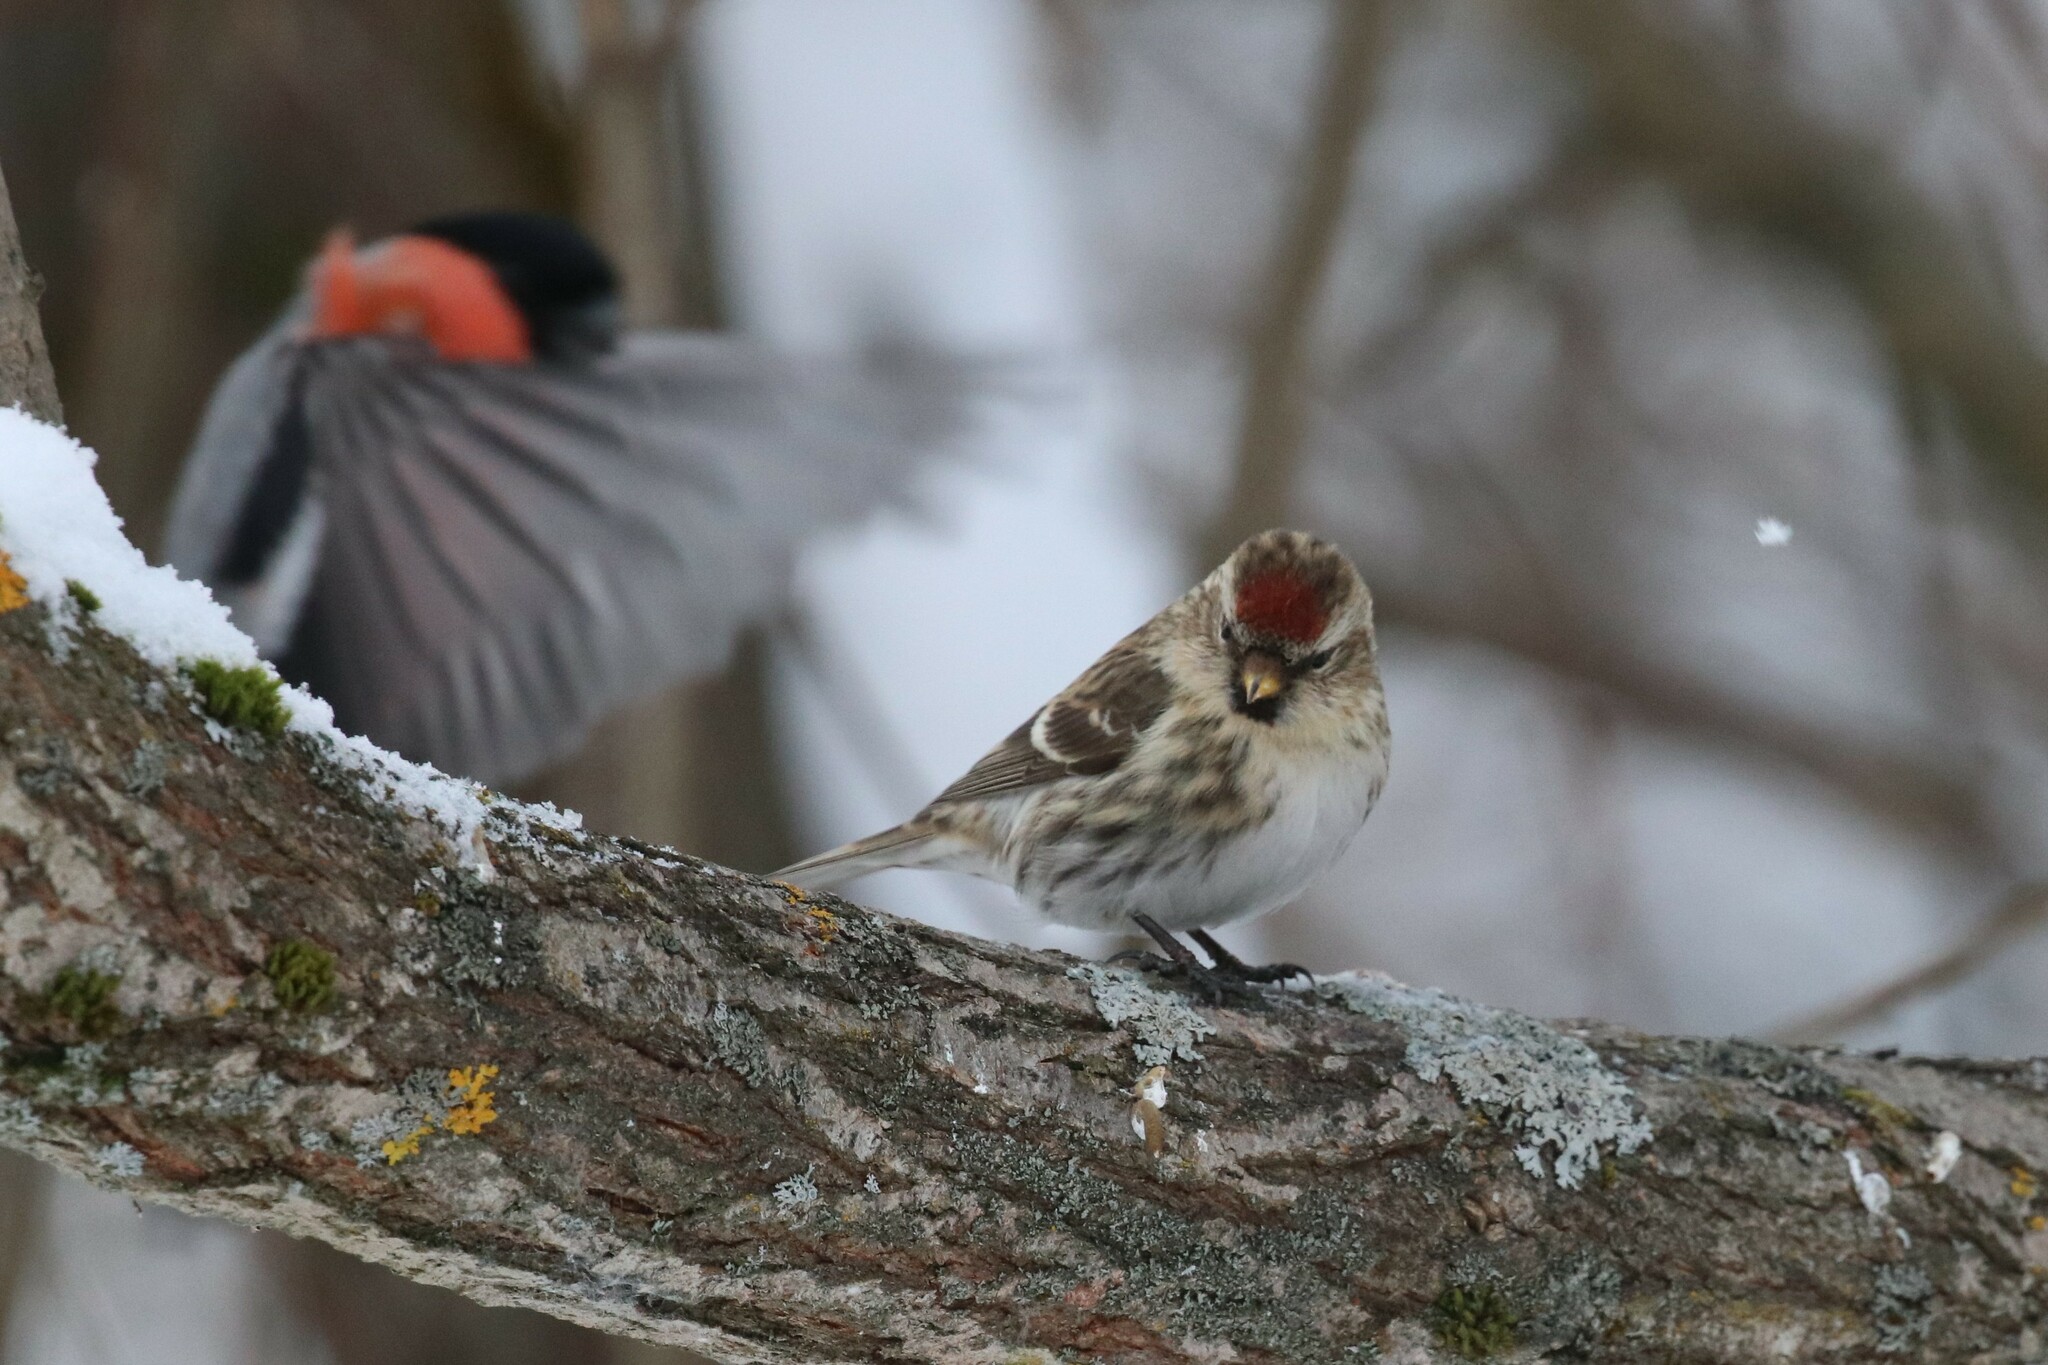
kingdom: Animalia
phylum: Chordata
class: Aves
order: Passeriformes
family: Fringillidae
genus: Acanthis
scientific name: Acanthis flammea
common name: Common redpoll
